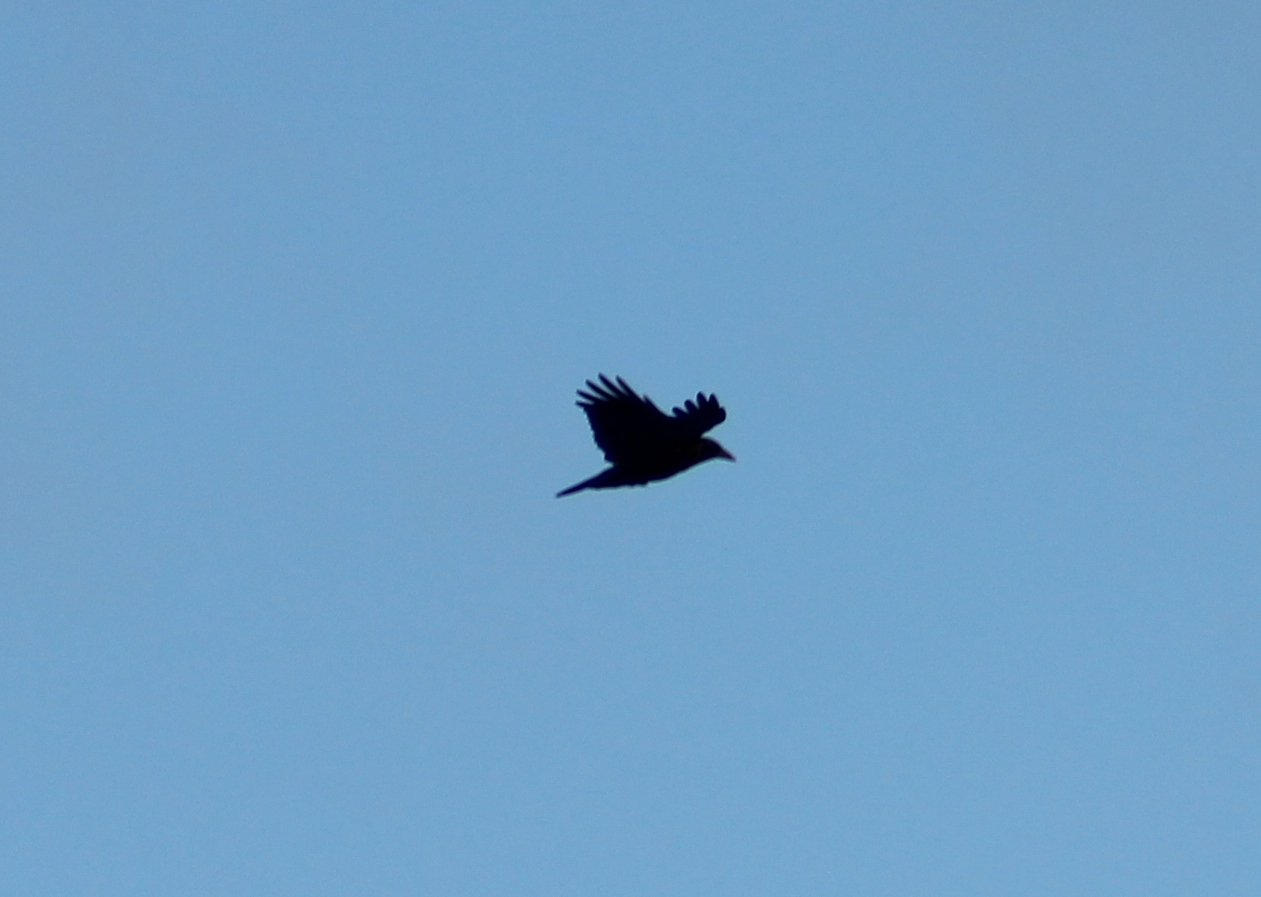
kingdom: Animalia
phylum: Chordata
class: Aves
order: Passeriformes
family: Corvidae
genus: Corvus
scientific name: Corvus brachyrhynchos
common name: American crow
